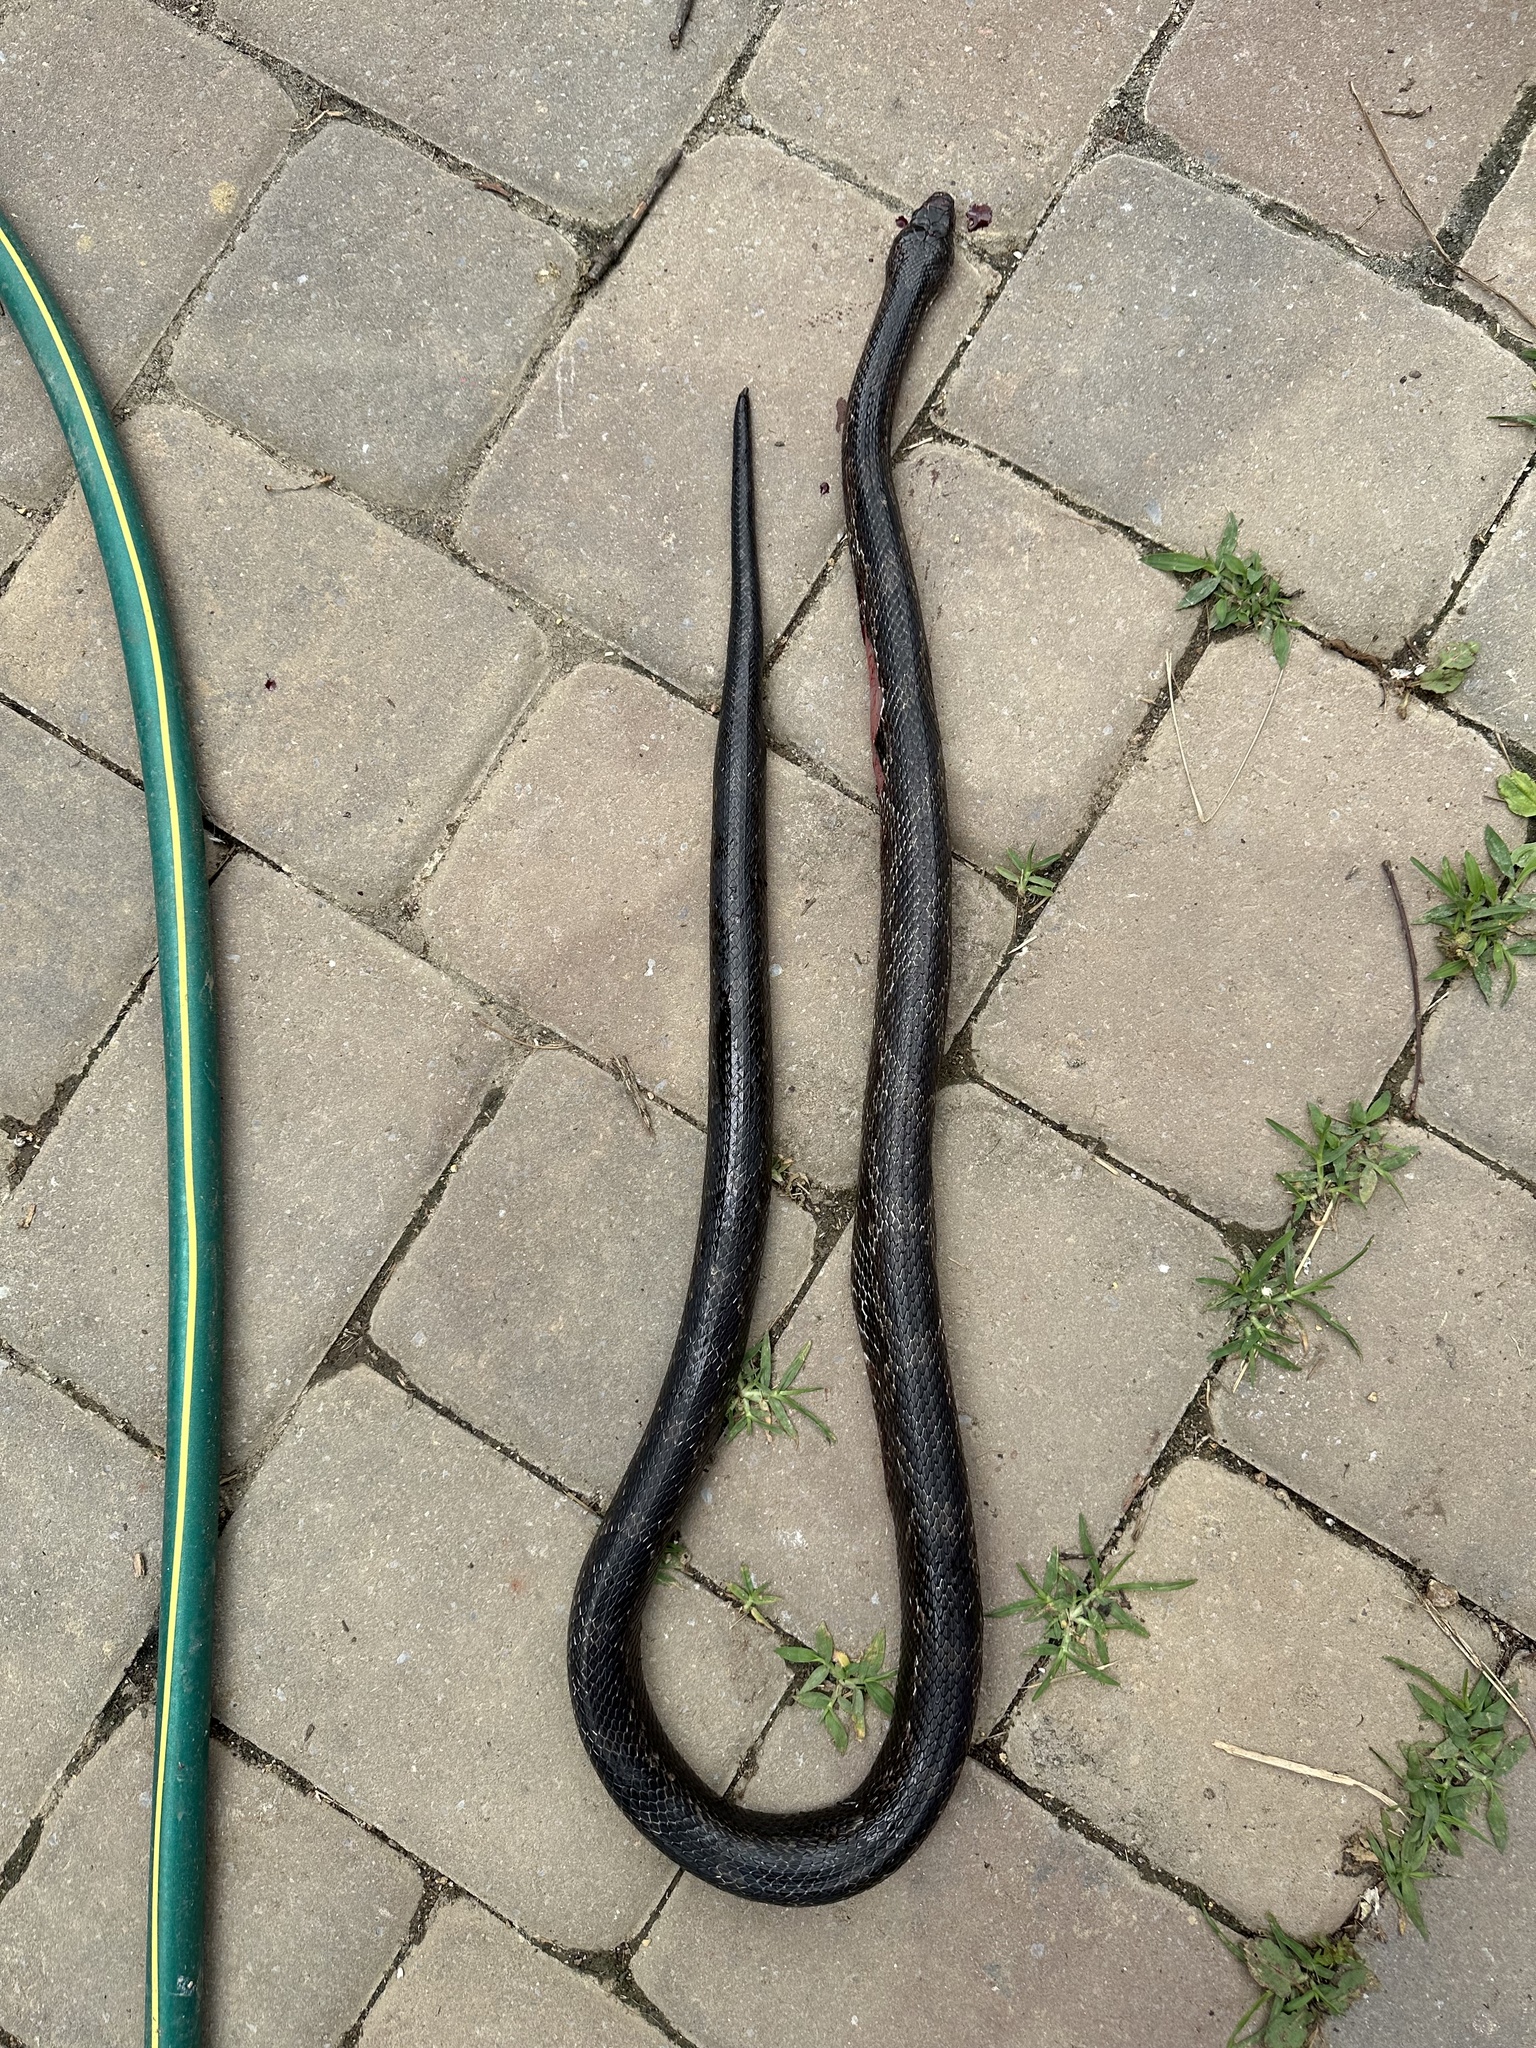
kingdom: Animalia
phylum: Chordata
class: Squamata
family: Colubridae
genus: Pantherophis
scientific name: Pantherophis spiloides
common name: Gray rat snake
